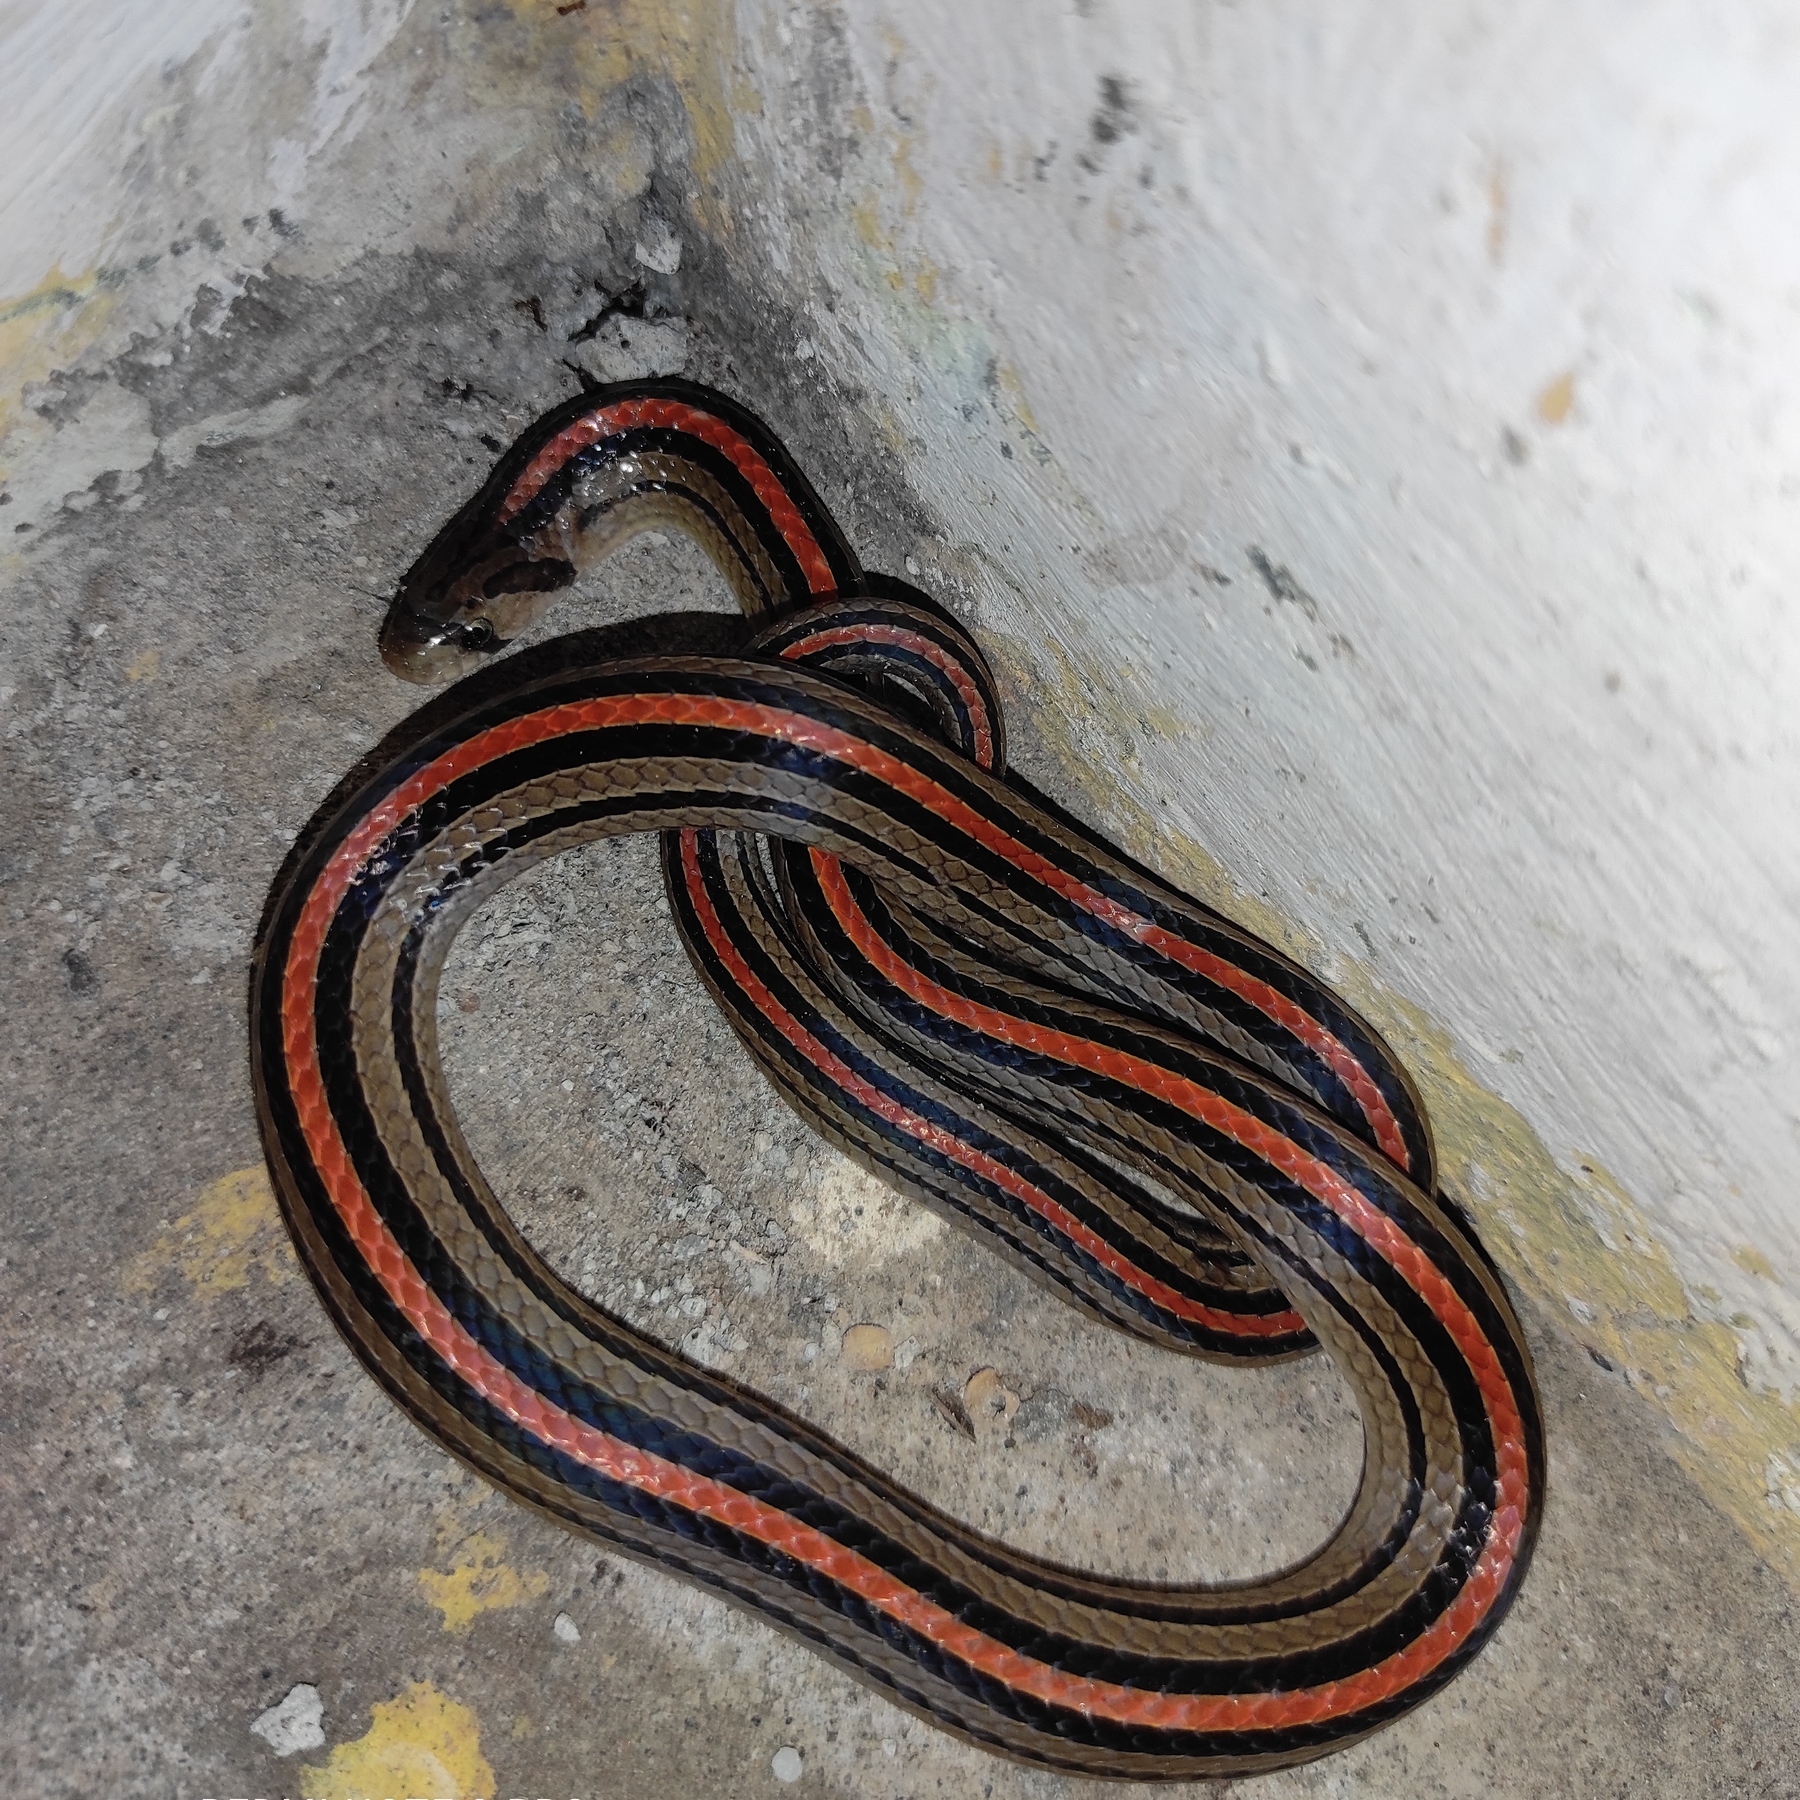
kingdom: Animalia
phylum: Chordata
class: Squamata
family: Colubridae
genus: Oligodon
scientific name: Oligodon octolineatus
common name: Eight-striped kukri snake
